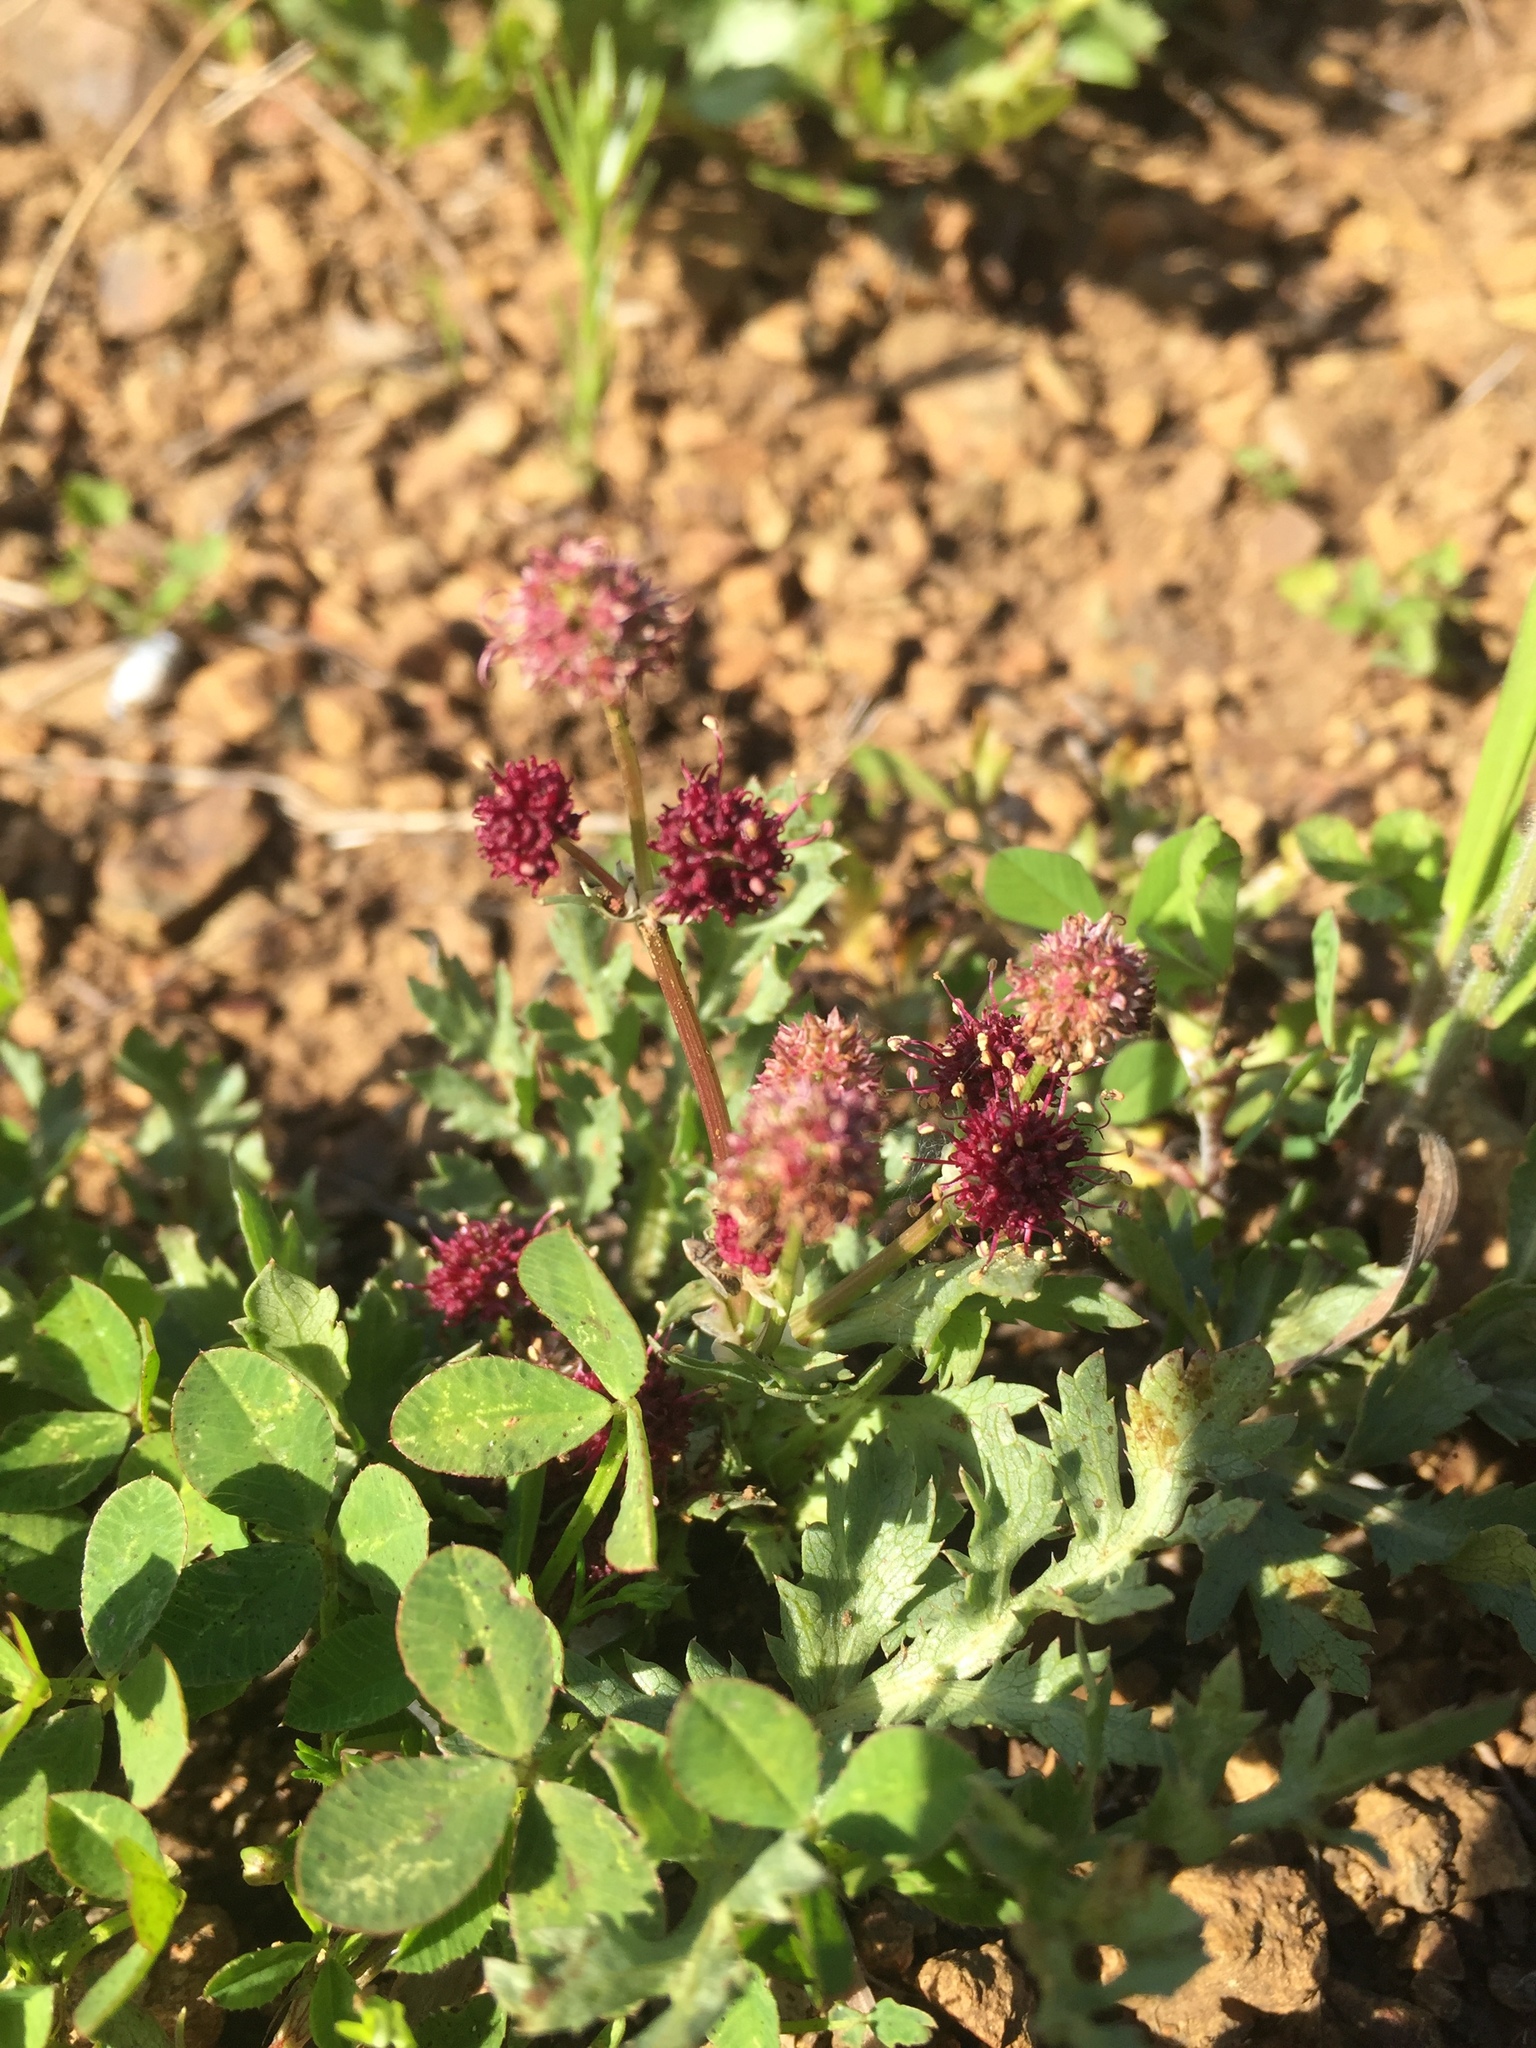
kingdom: Plantae
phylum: Tracheophyta
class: Magnoliopsida
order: Apiales
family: Apiaceae
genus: Sanicula
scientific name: Sanicula bipinnatifida
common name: Shoe-buttons
